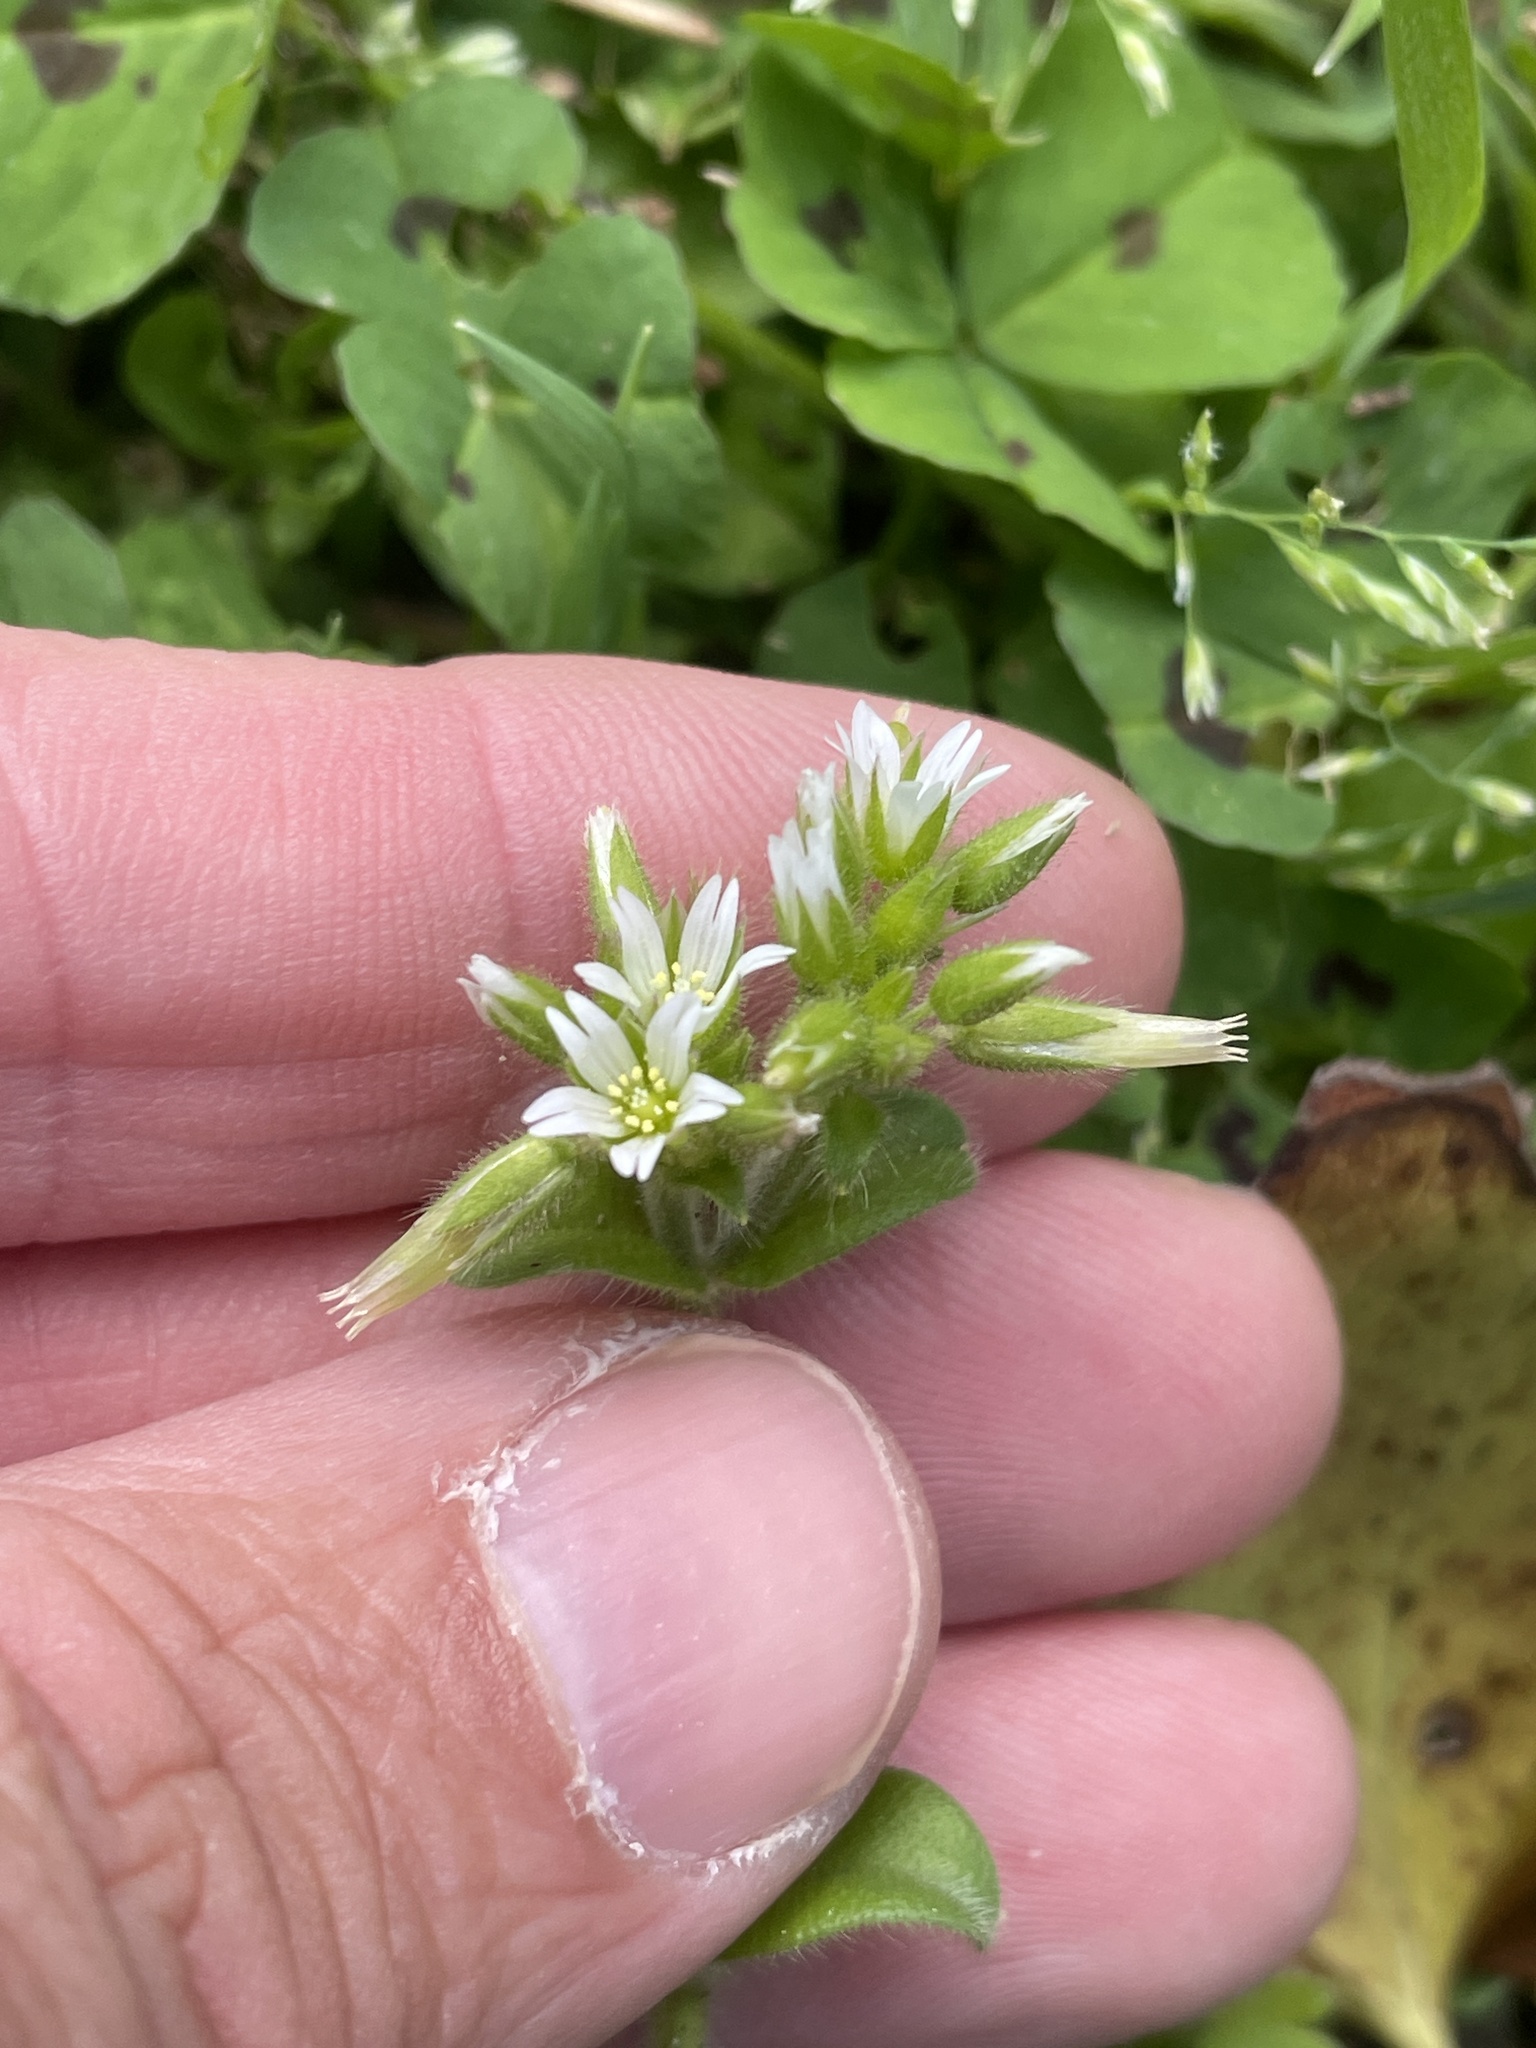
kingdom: Plantae
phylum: Tracheophyta
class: Magnoliopsida
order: Caryophyllales
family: Caryophyllaceae
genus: Cerastium
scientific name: Cerastium glomeratum
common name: Sticky chickweed
